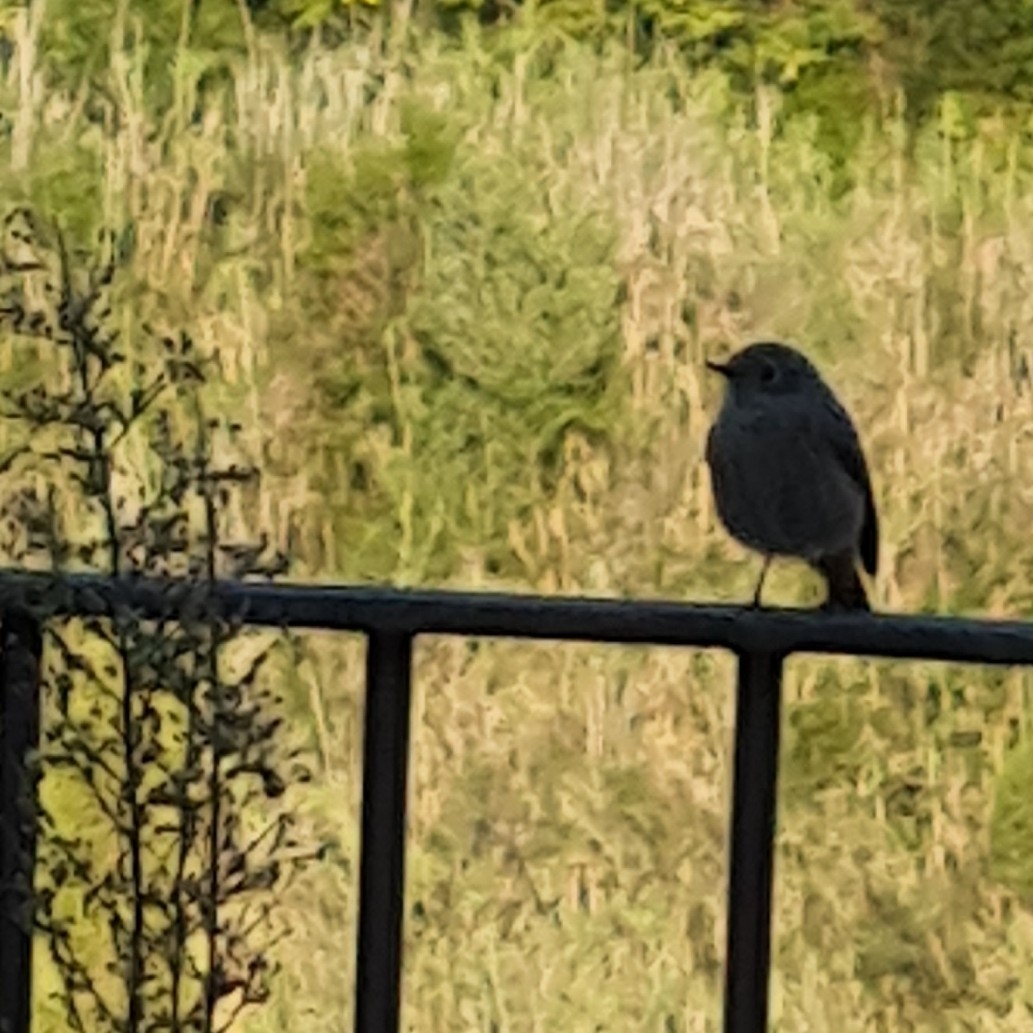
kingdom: Animalia
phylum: Chordata
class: Aves
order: Passeriformes
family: Muscicapidae
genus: Phoenicurus
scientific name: Phoenicurus ochruros
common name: Black redstart
